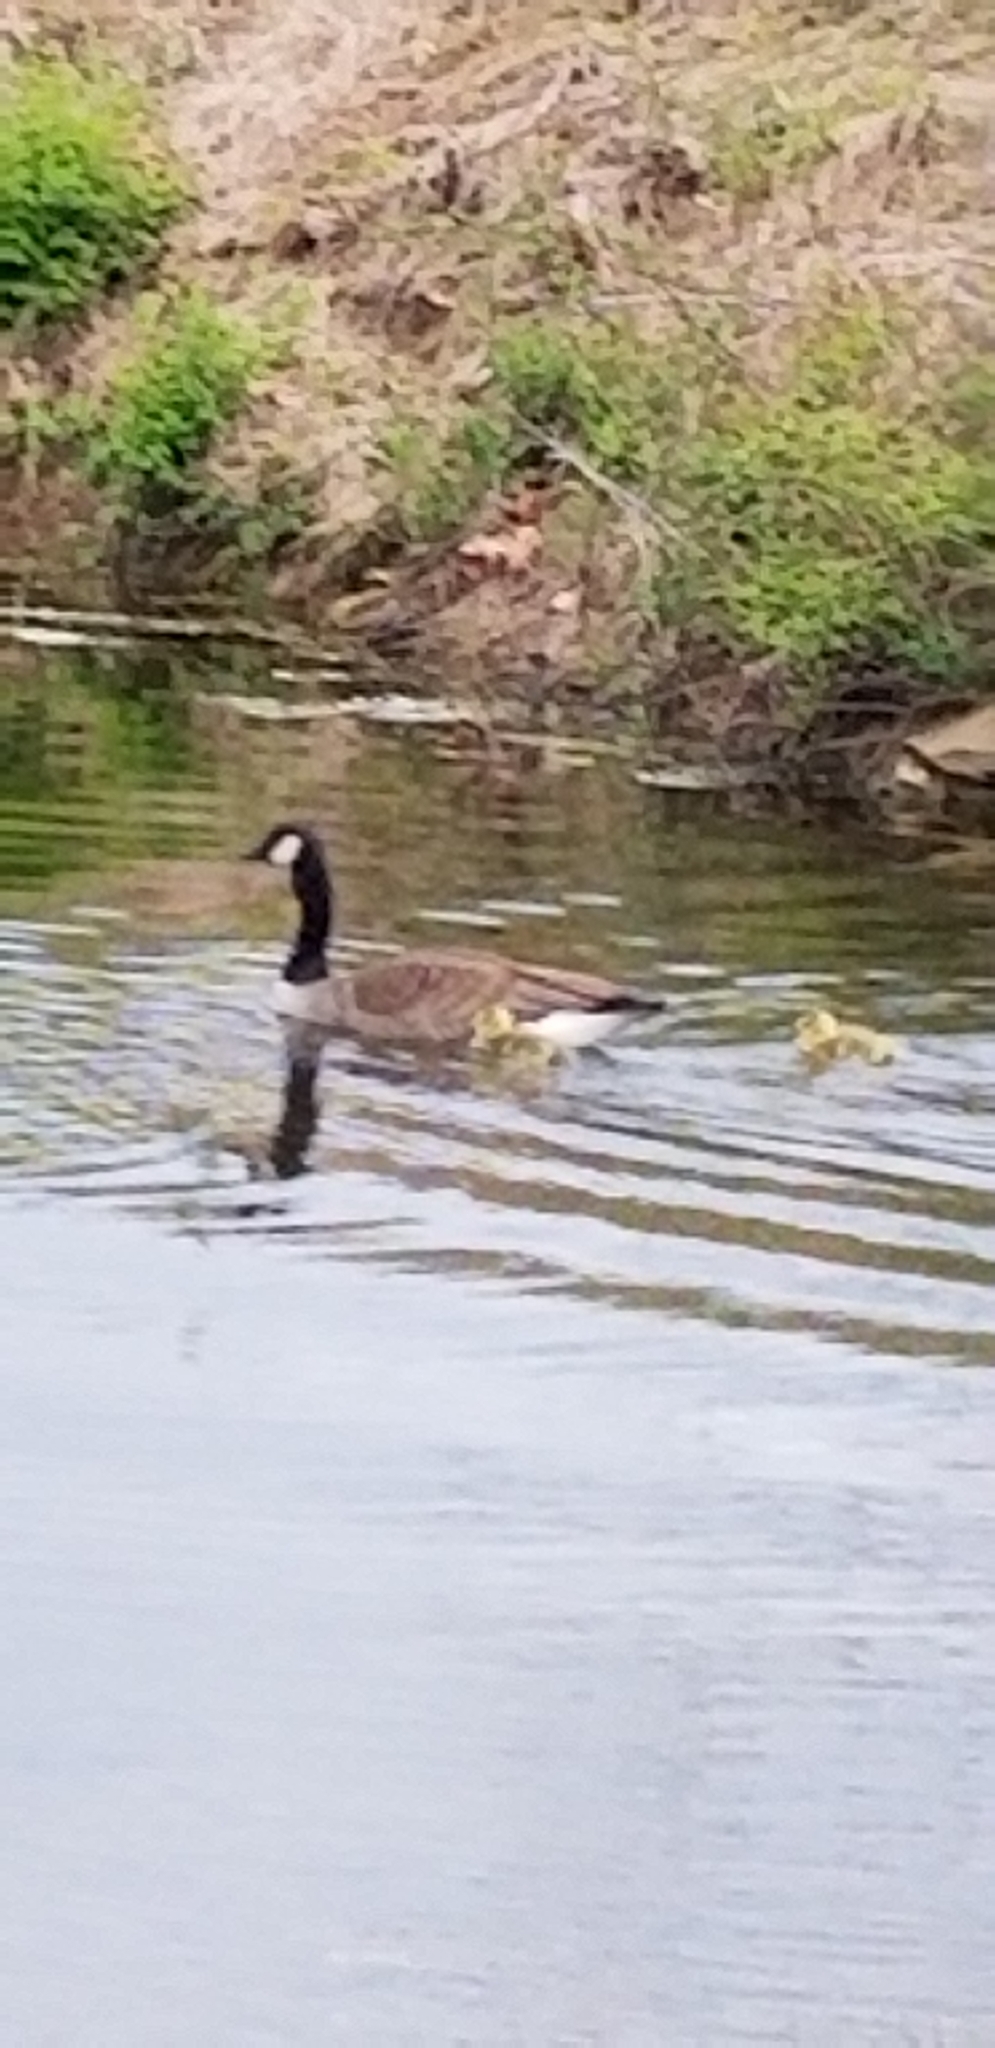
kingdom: Animalia
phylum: Chordata
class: Aves
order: Anseriformes
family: Anatidae
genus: Branta
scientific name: Branta canadensis
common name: Canada goose
